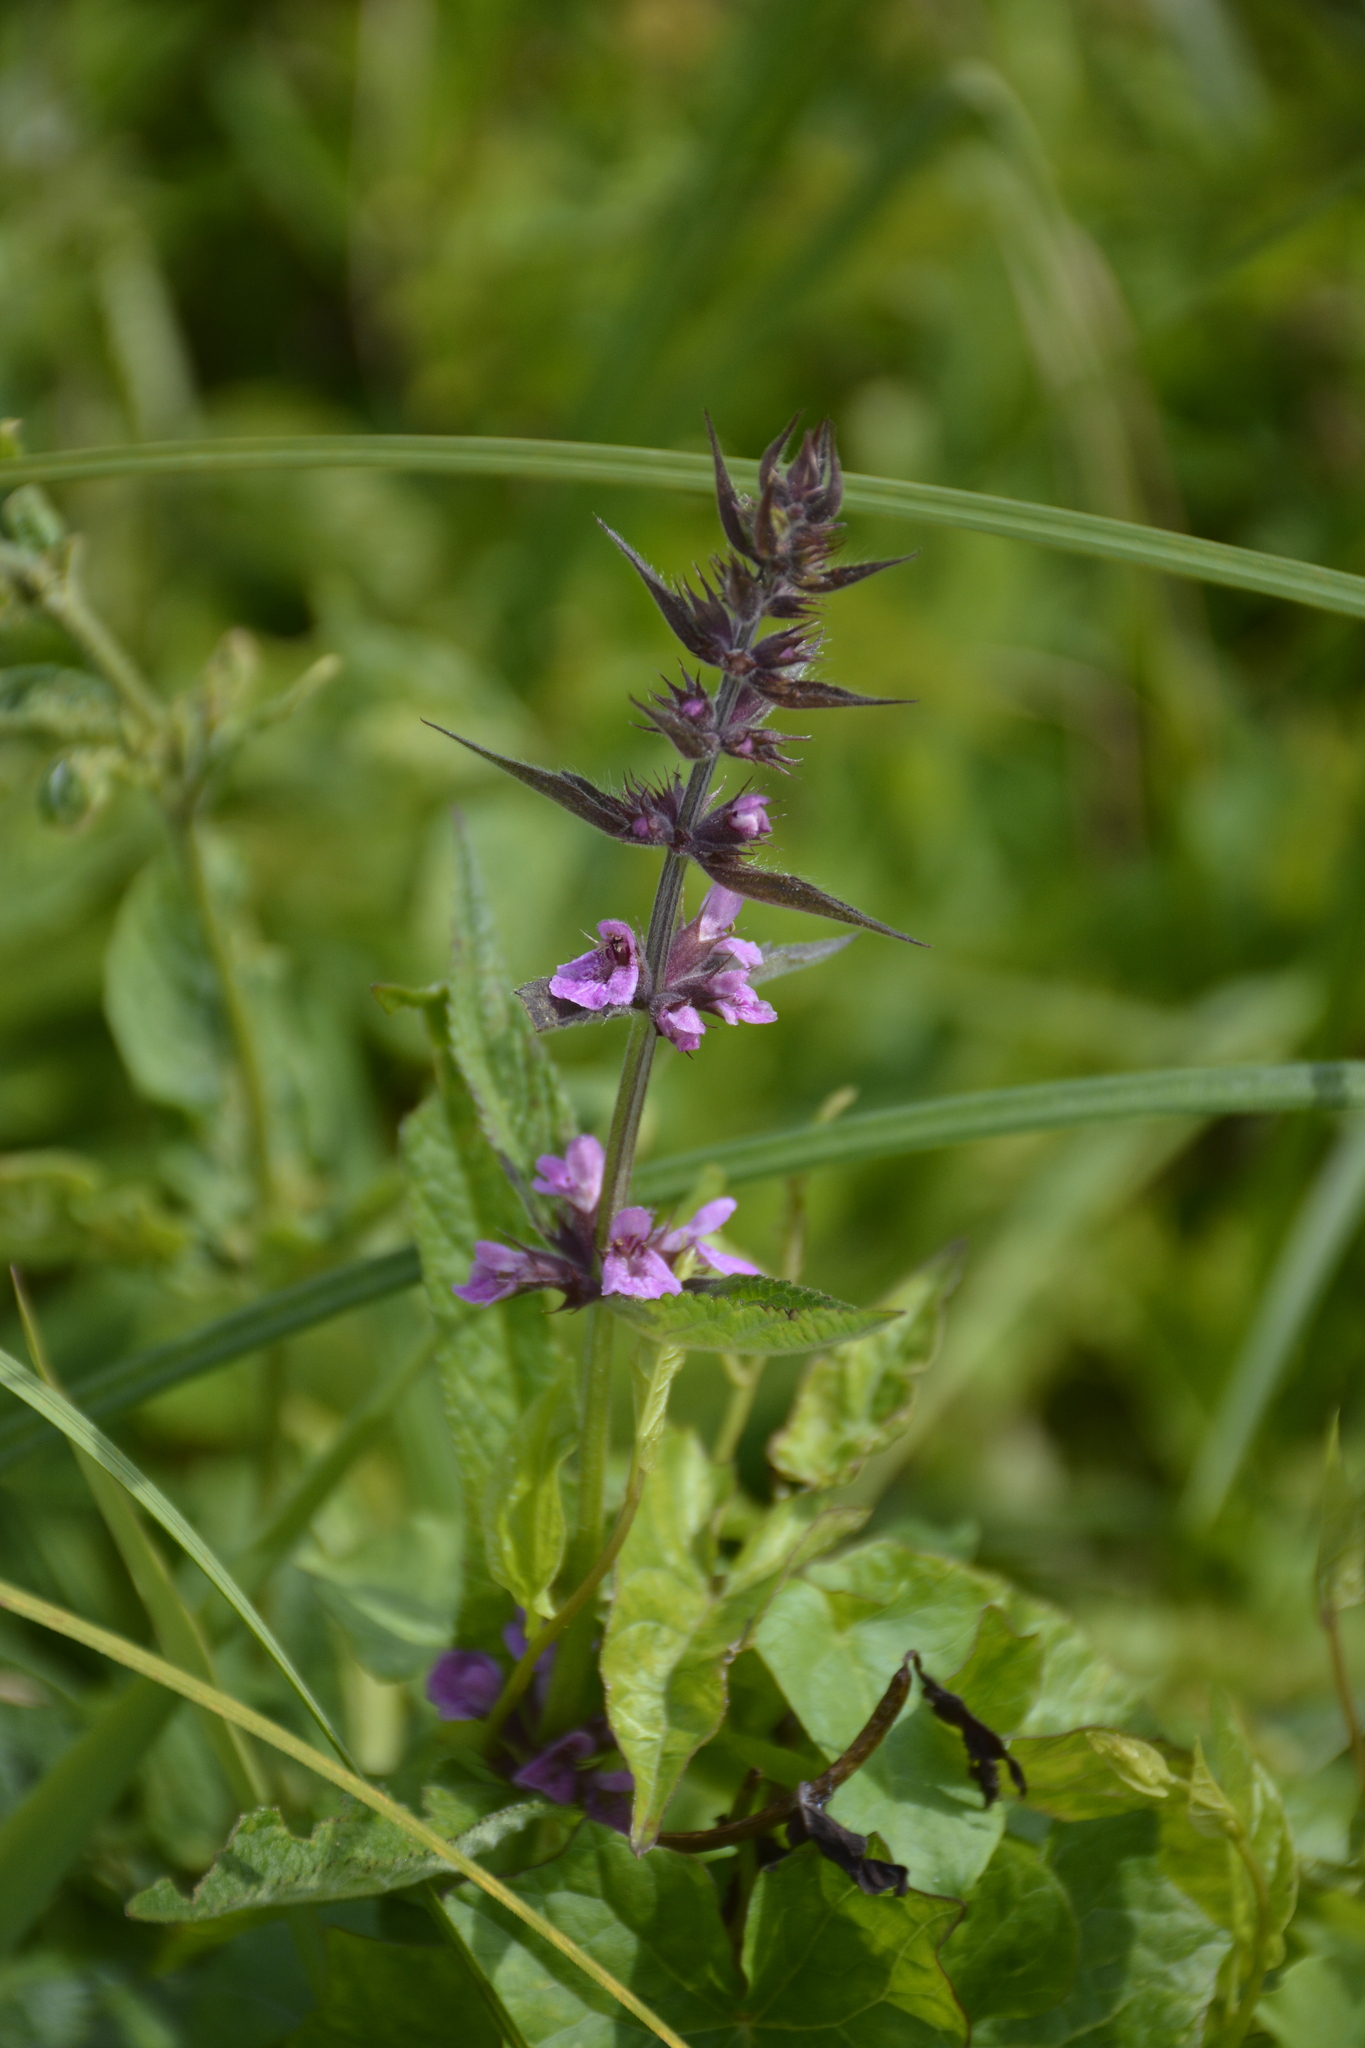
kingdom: Plantae
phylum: Tracheophyta
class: Magnoliopsida
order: Lamiales
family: Lamiaceae
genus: Stachys
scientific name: Stachys palustris
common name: Marsh woundwort
